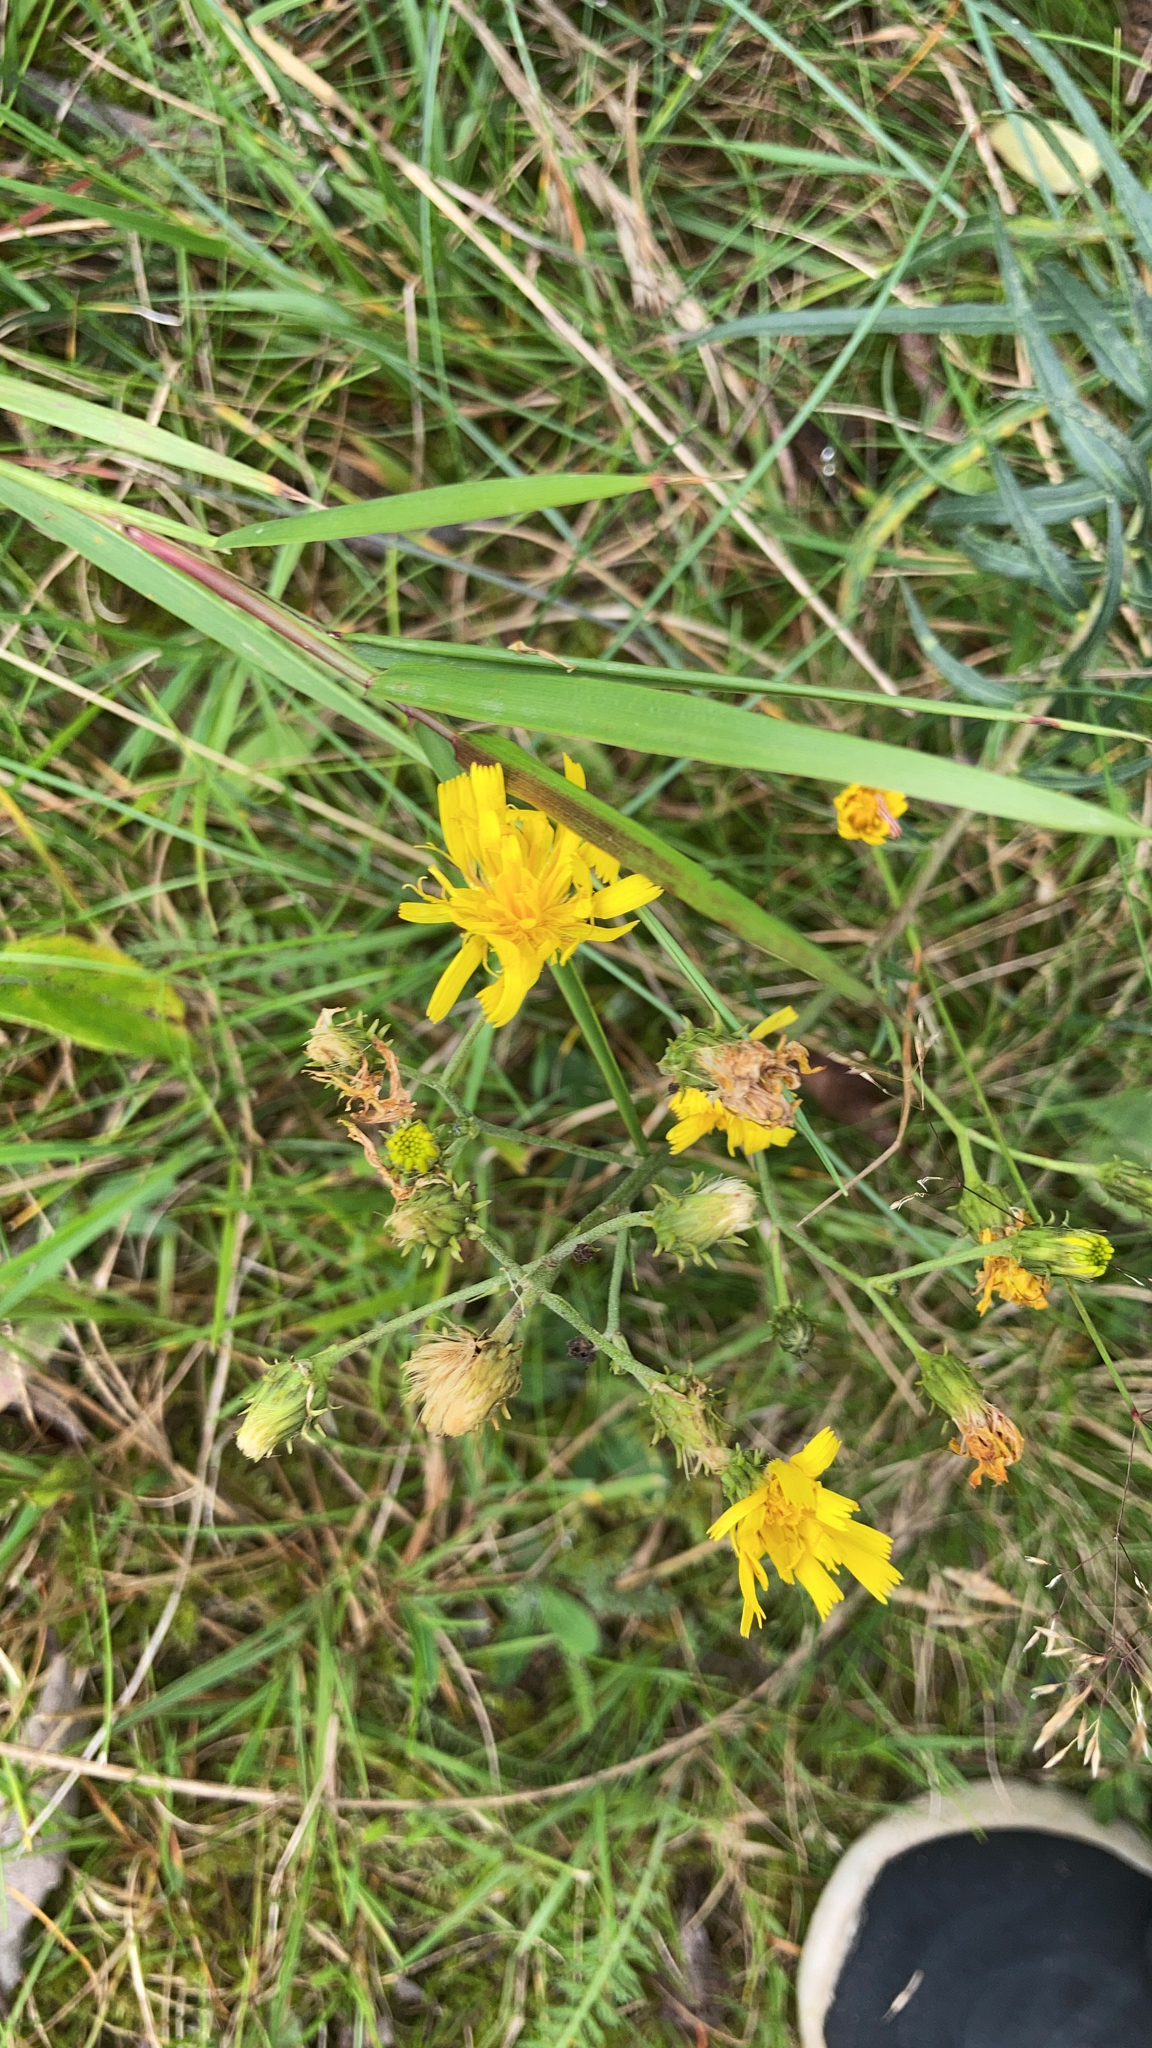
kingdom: Plantae
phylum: Tracheophyta
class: Magnoliopsida
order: Asterales
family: Asteraceae
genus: Hieracium
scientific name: Hieracium umbellatum
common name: Northern hawkweed
